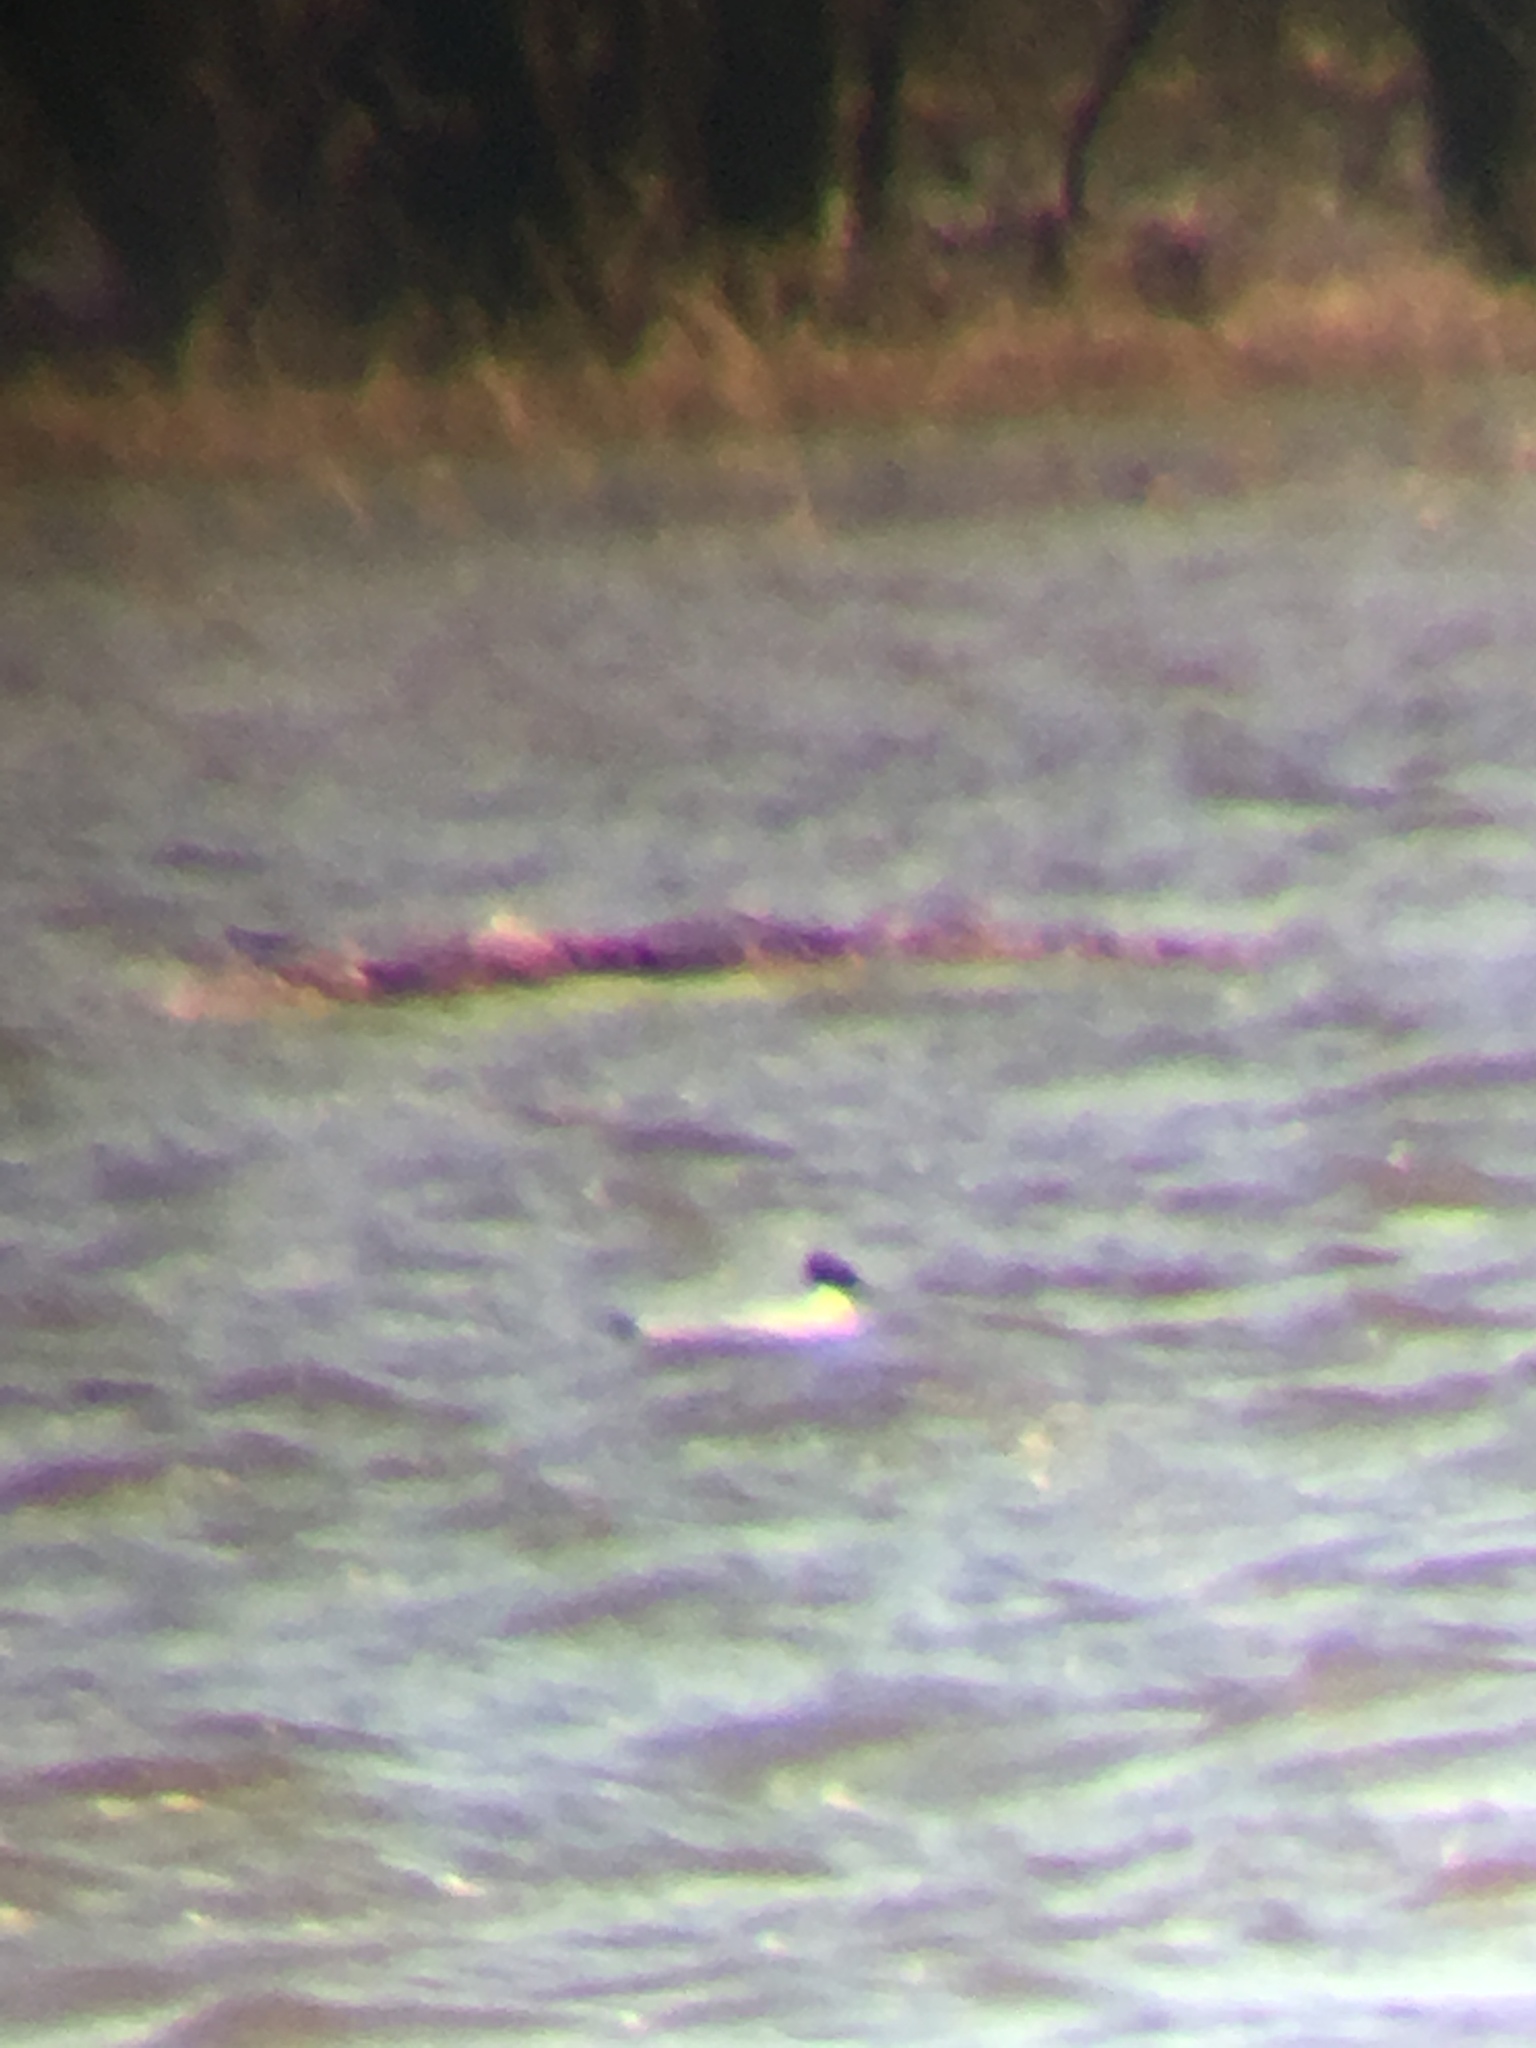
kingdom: Animalia
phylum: Chordata
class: Aves
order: Charadriiformes
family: Laridae
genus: Chroicocephalus
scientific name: Chroicocephalus philadelphia
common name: Bonaparte's gull
